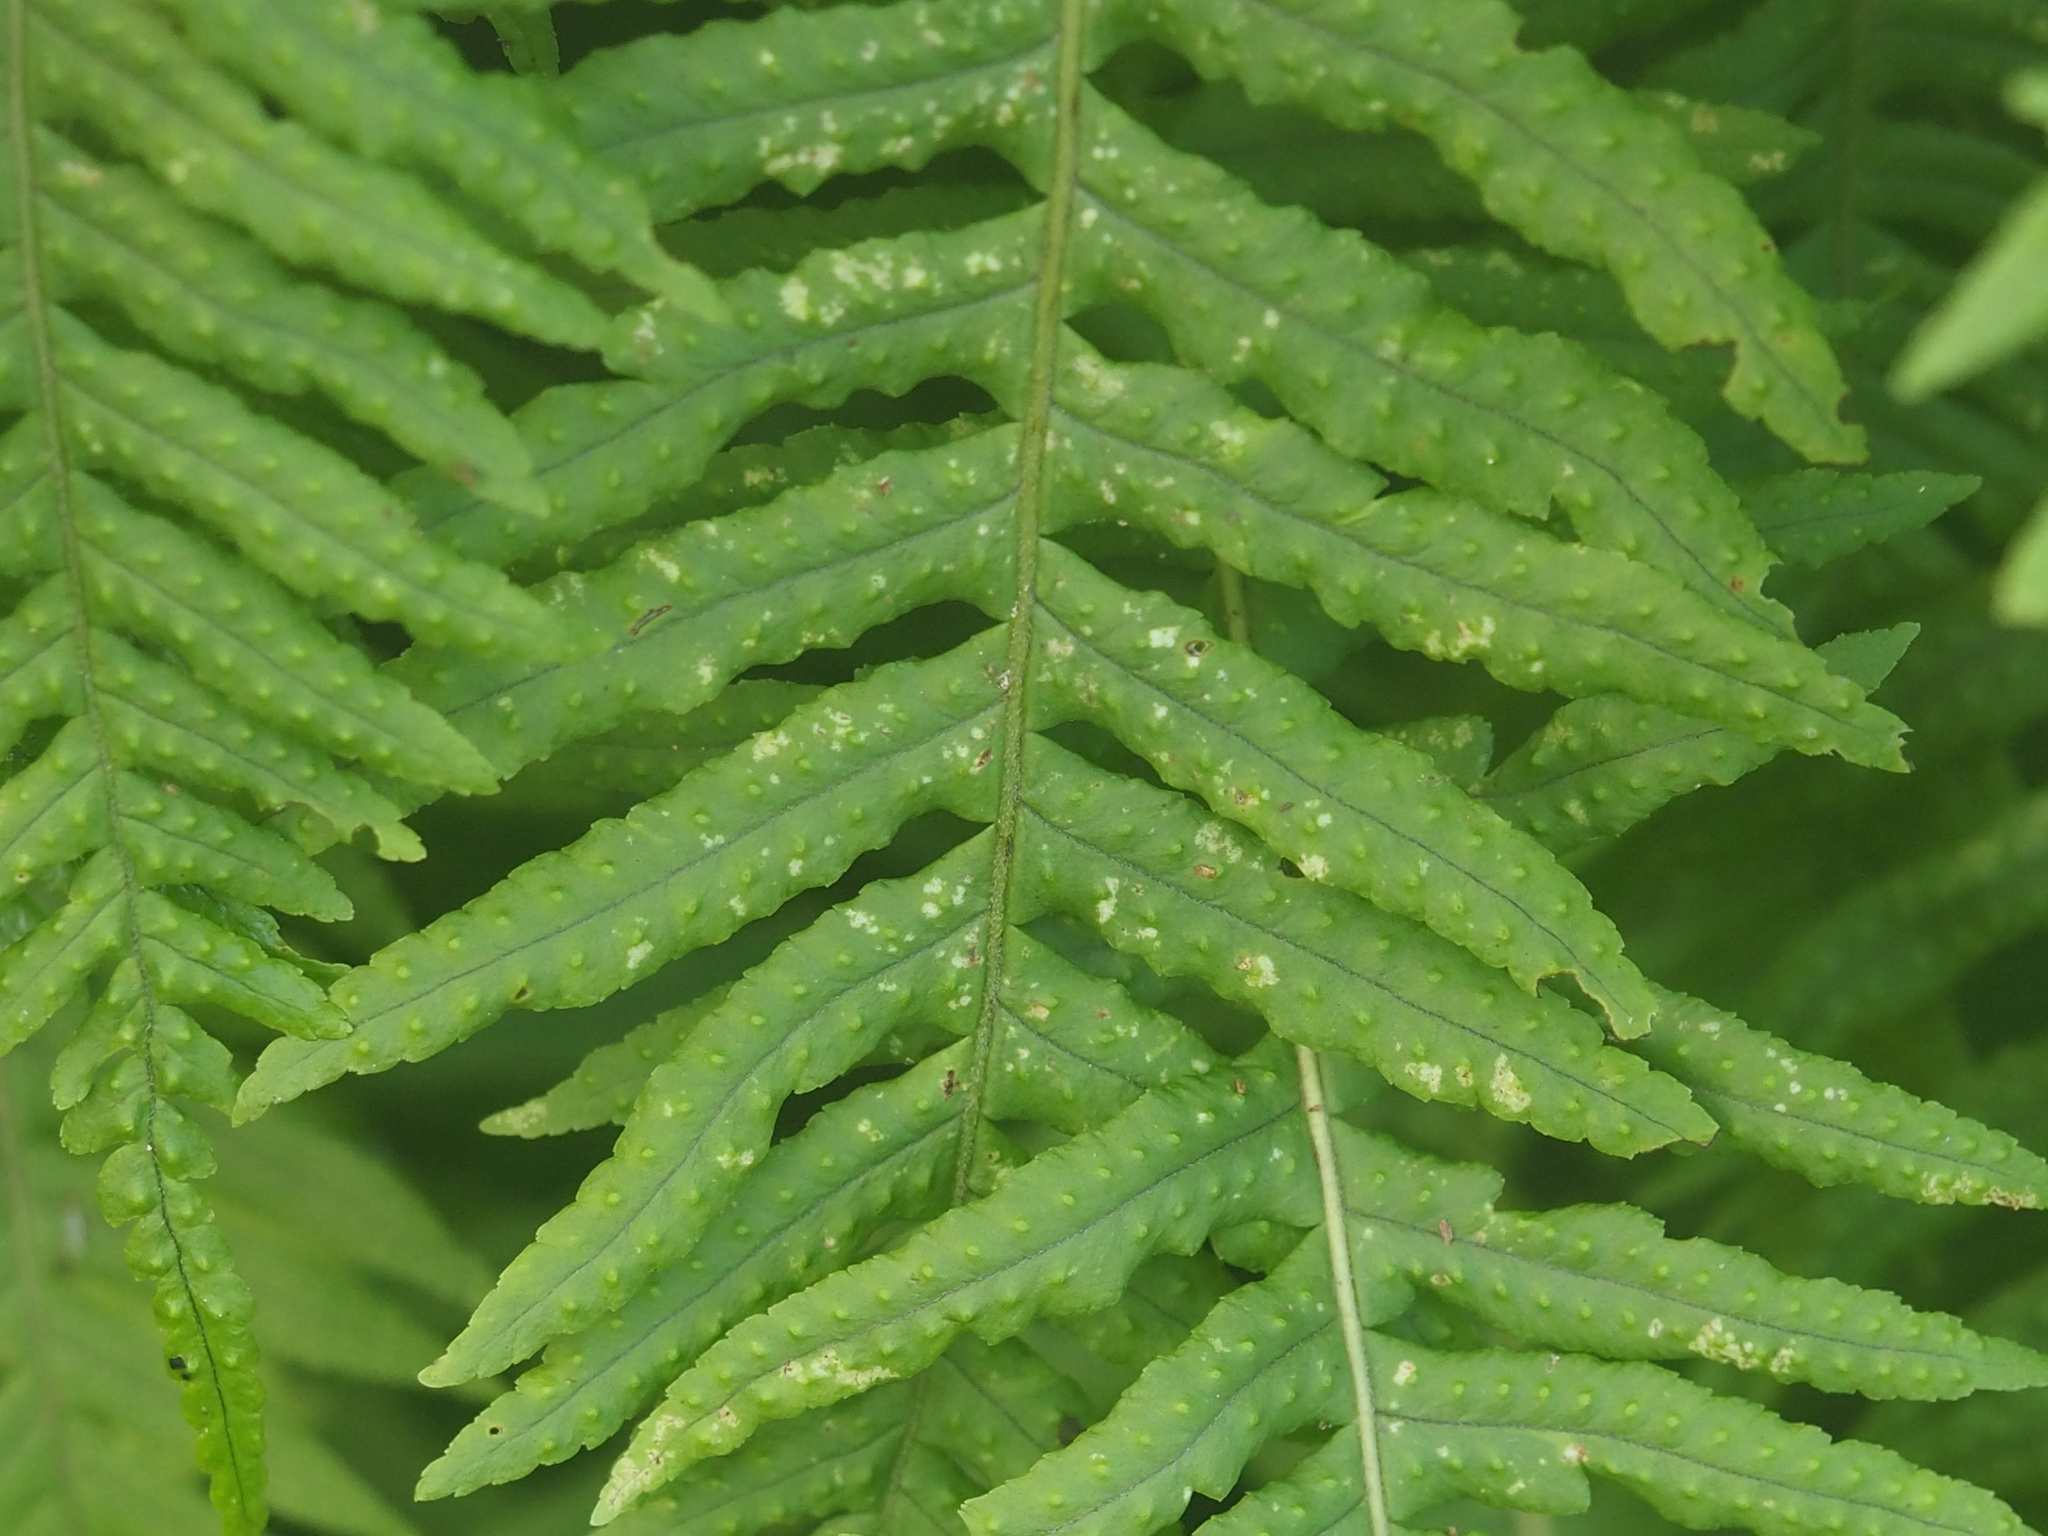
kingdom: Plantae
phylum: Tracheophyta
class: Polypodiopsida
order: Polypodiales
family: Polypodiaceae
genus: Polypodium
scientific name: Polypodium glycyrrhiza
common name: Licorice fern
